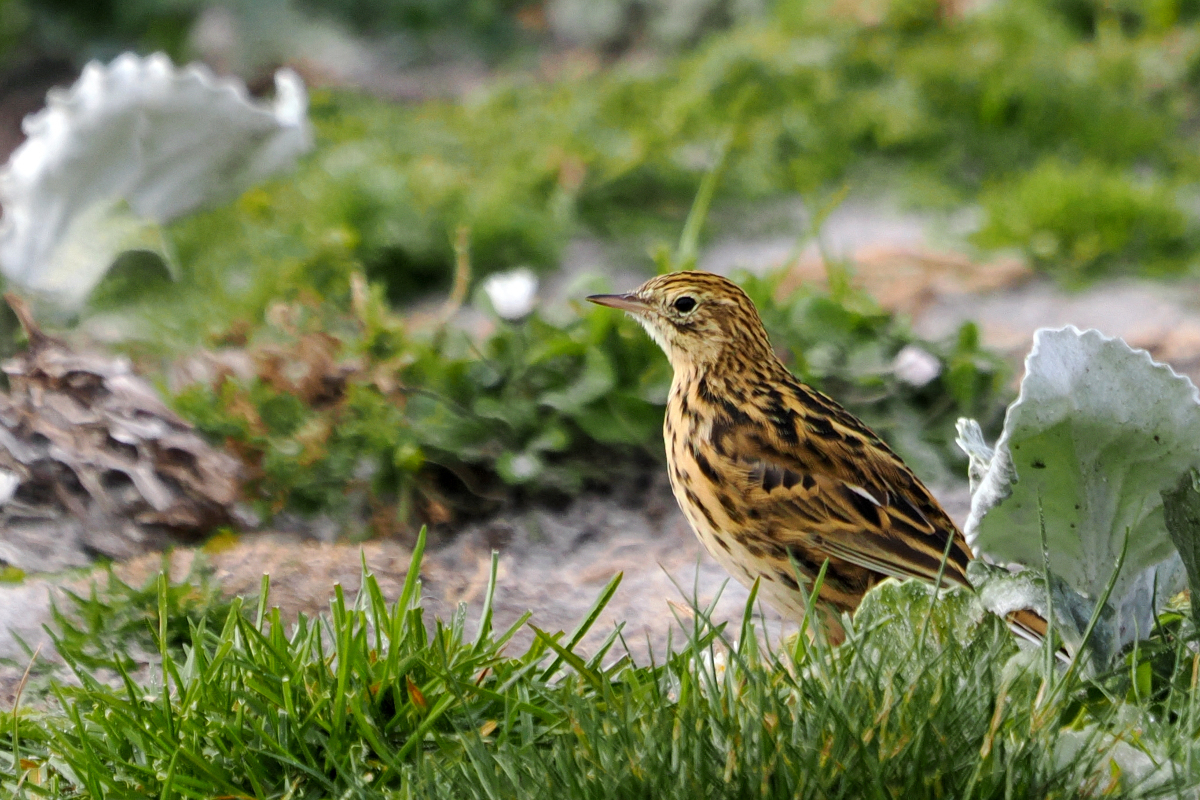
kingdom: Animalia
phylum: Chordata
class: Aves
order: Passeriformes
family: Motacillidae
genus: Anthus
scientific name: Anthus correndera
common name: Correndera pipit
